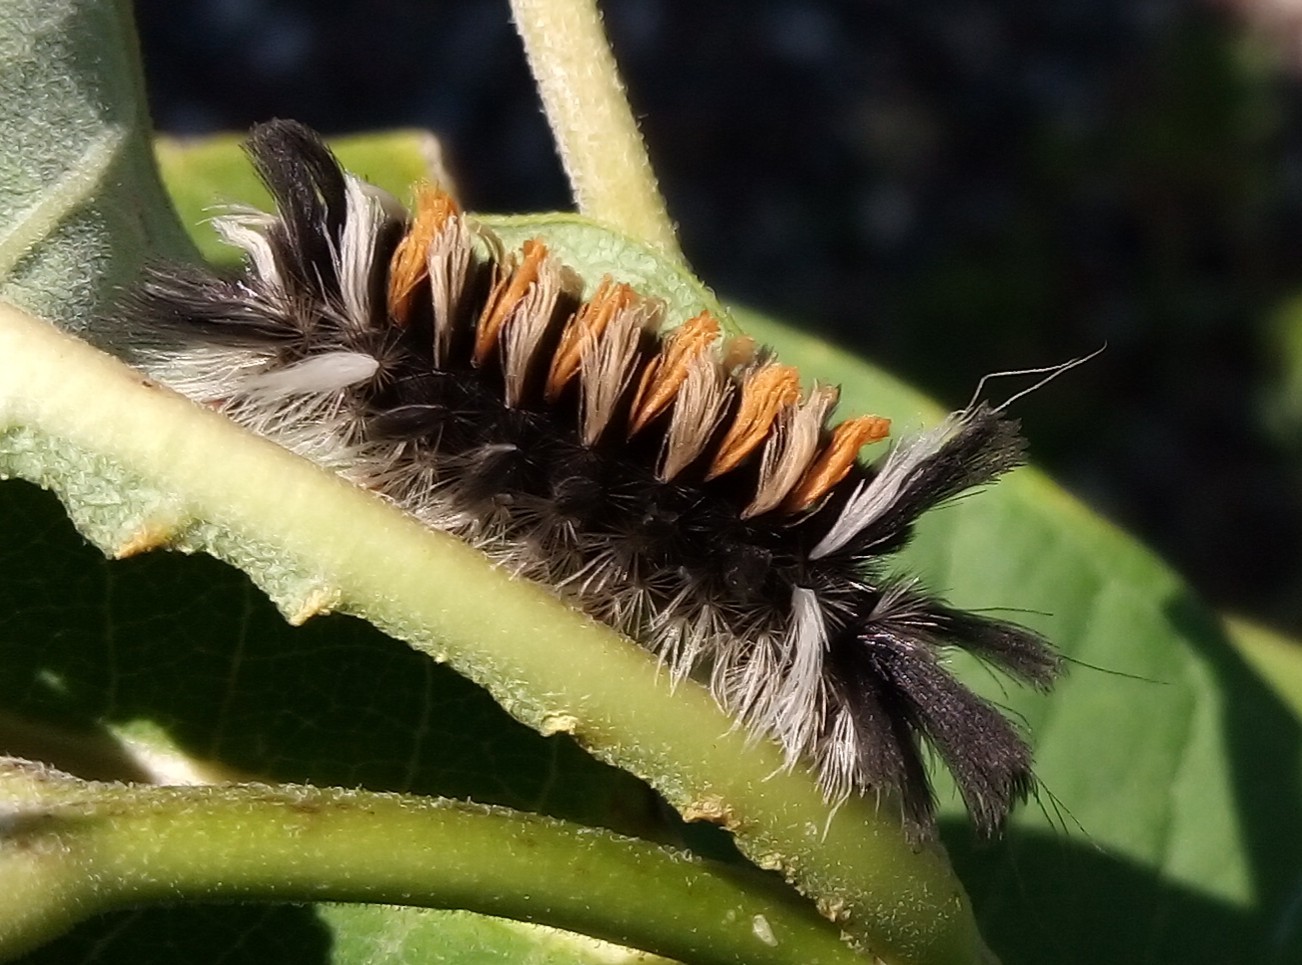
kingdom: Animalia
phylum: Arthropoda
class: Insecta
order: Lepidoptera
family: Erebidae
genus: Euchaetes
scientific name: Euchaetes egle
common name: Milkweed tussock moth
